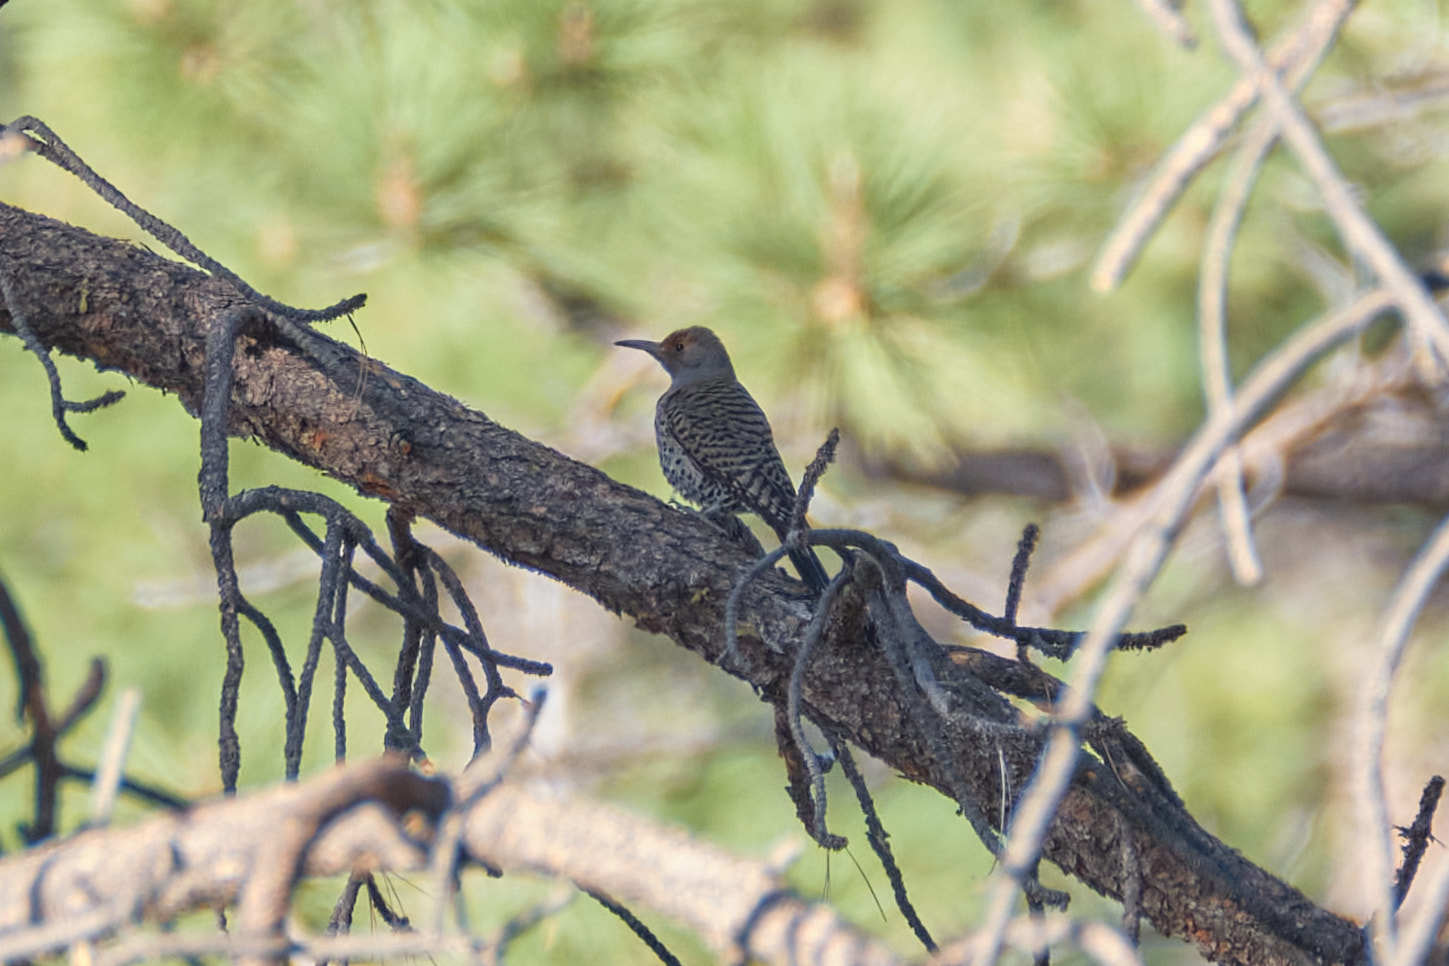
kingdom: Animalia
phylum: Chordata
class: Aves
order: Piciformes
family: Picidae
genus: Colaptes
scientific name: Colaptes auratus
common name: Northern flicker
